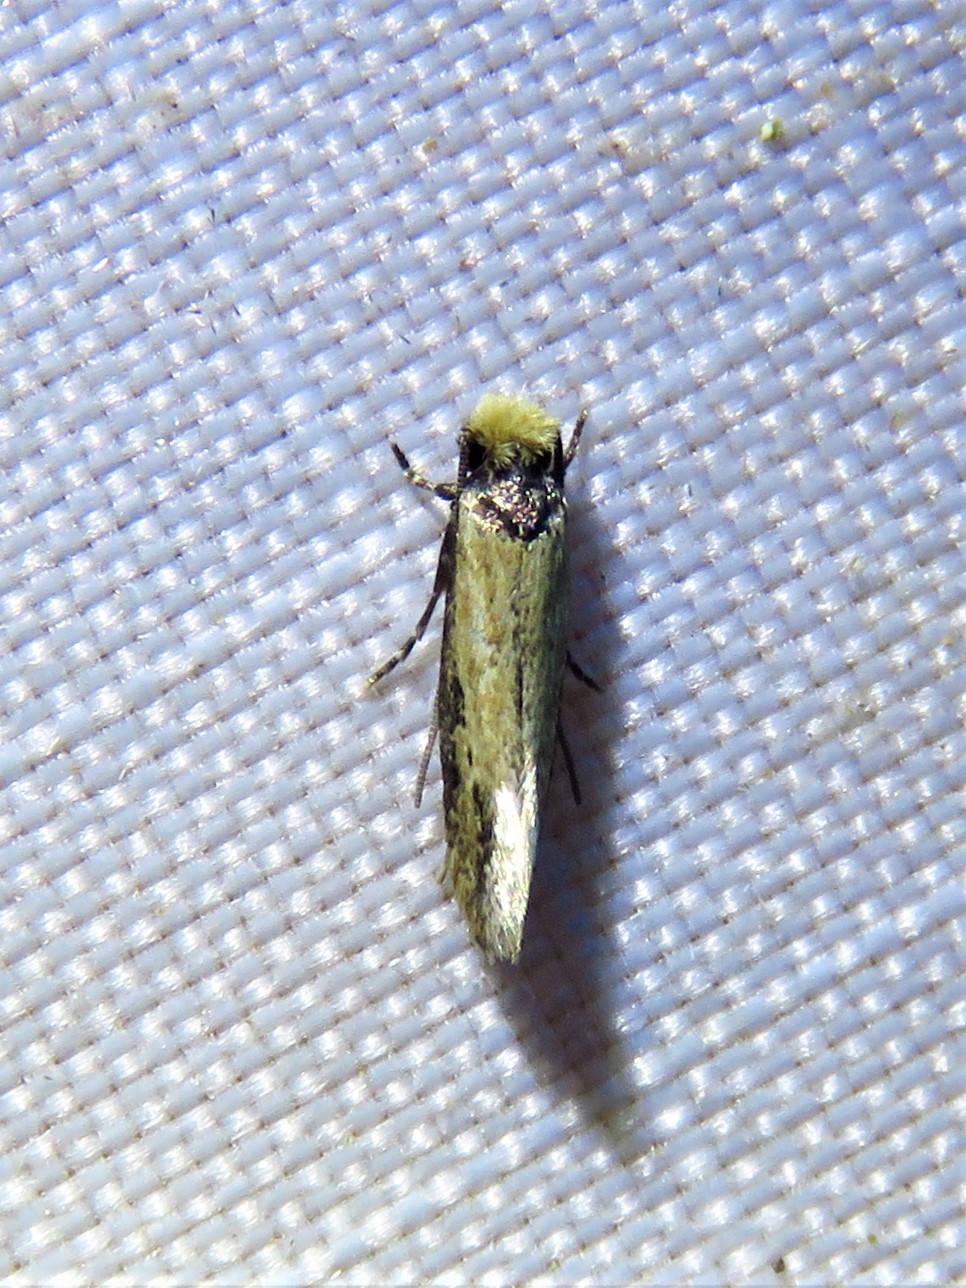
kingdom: Animalia
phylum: Arthropoda
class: Insecta
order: Lepidoptera
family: Meessiidae
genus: Homostinea
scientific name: Homostinea curviliniella
